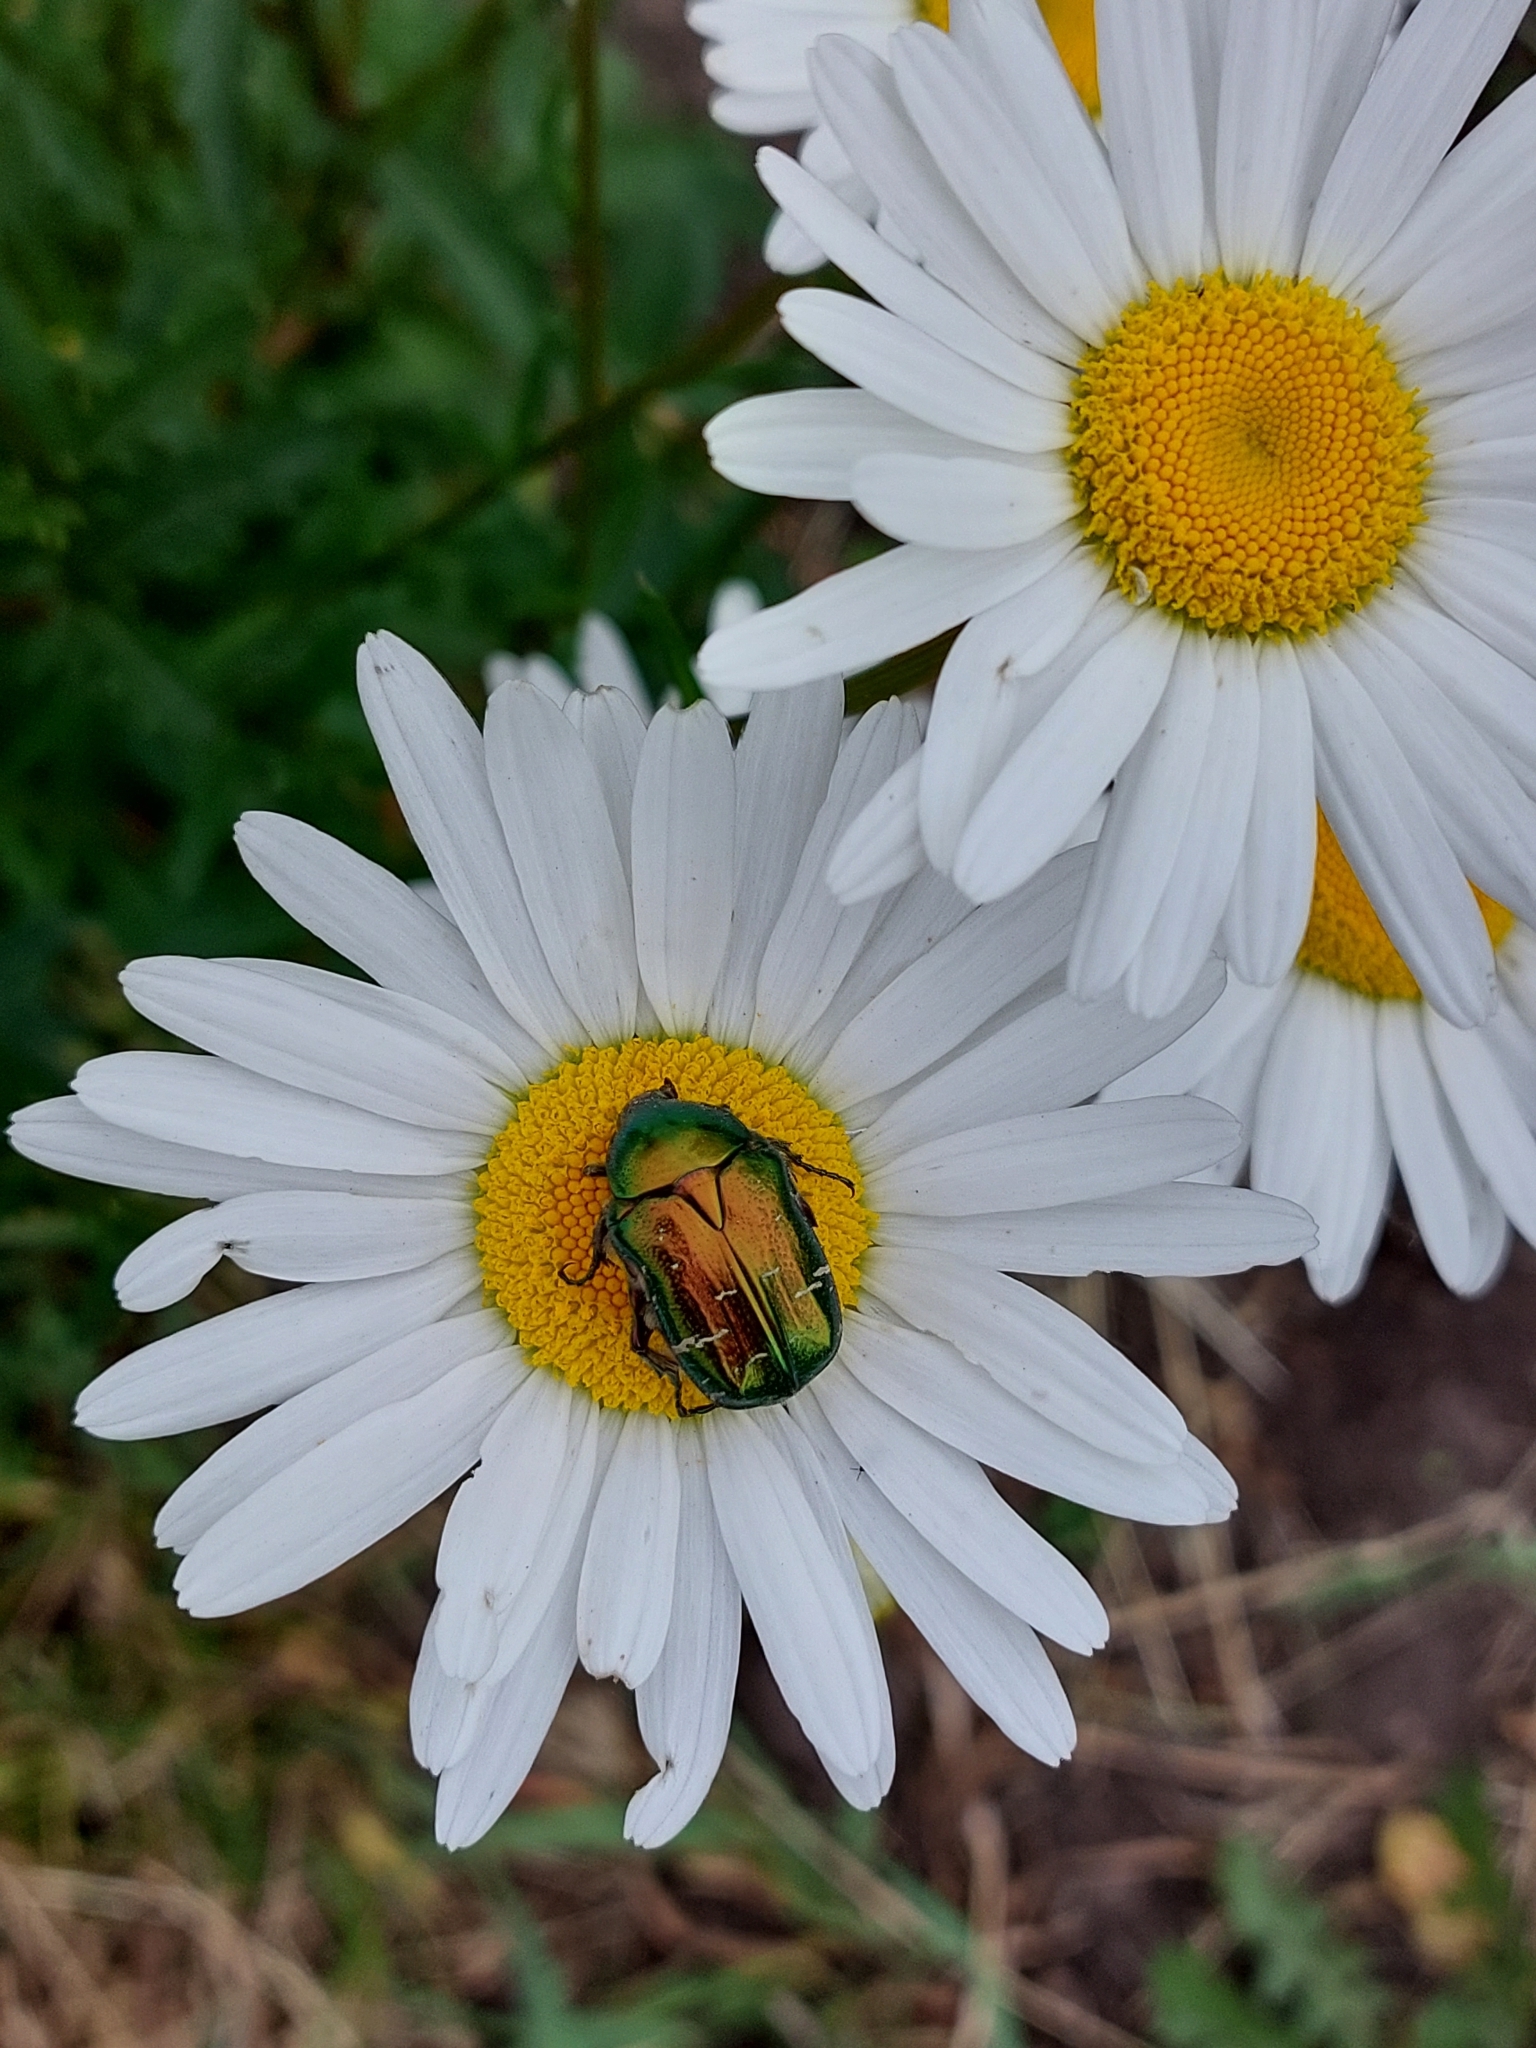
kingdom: Animalia
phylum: Arthropoda
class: Insecta
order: Coleoptera
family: Scarabaeidae
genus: Cetonia
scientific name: Cetonia aurata
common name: Rose chafer
